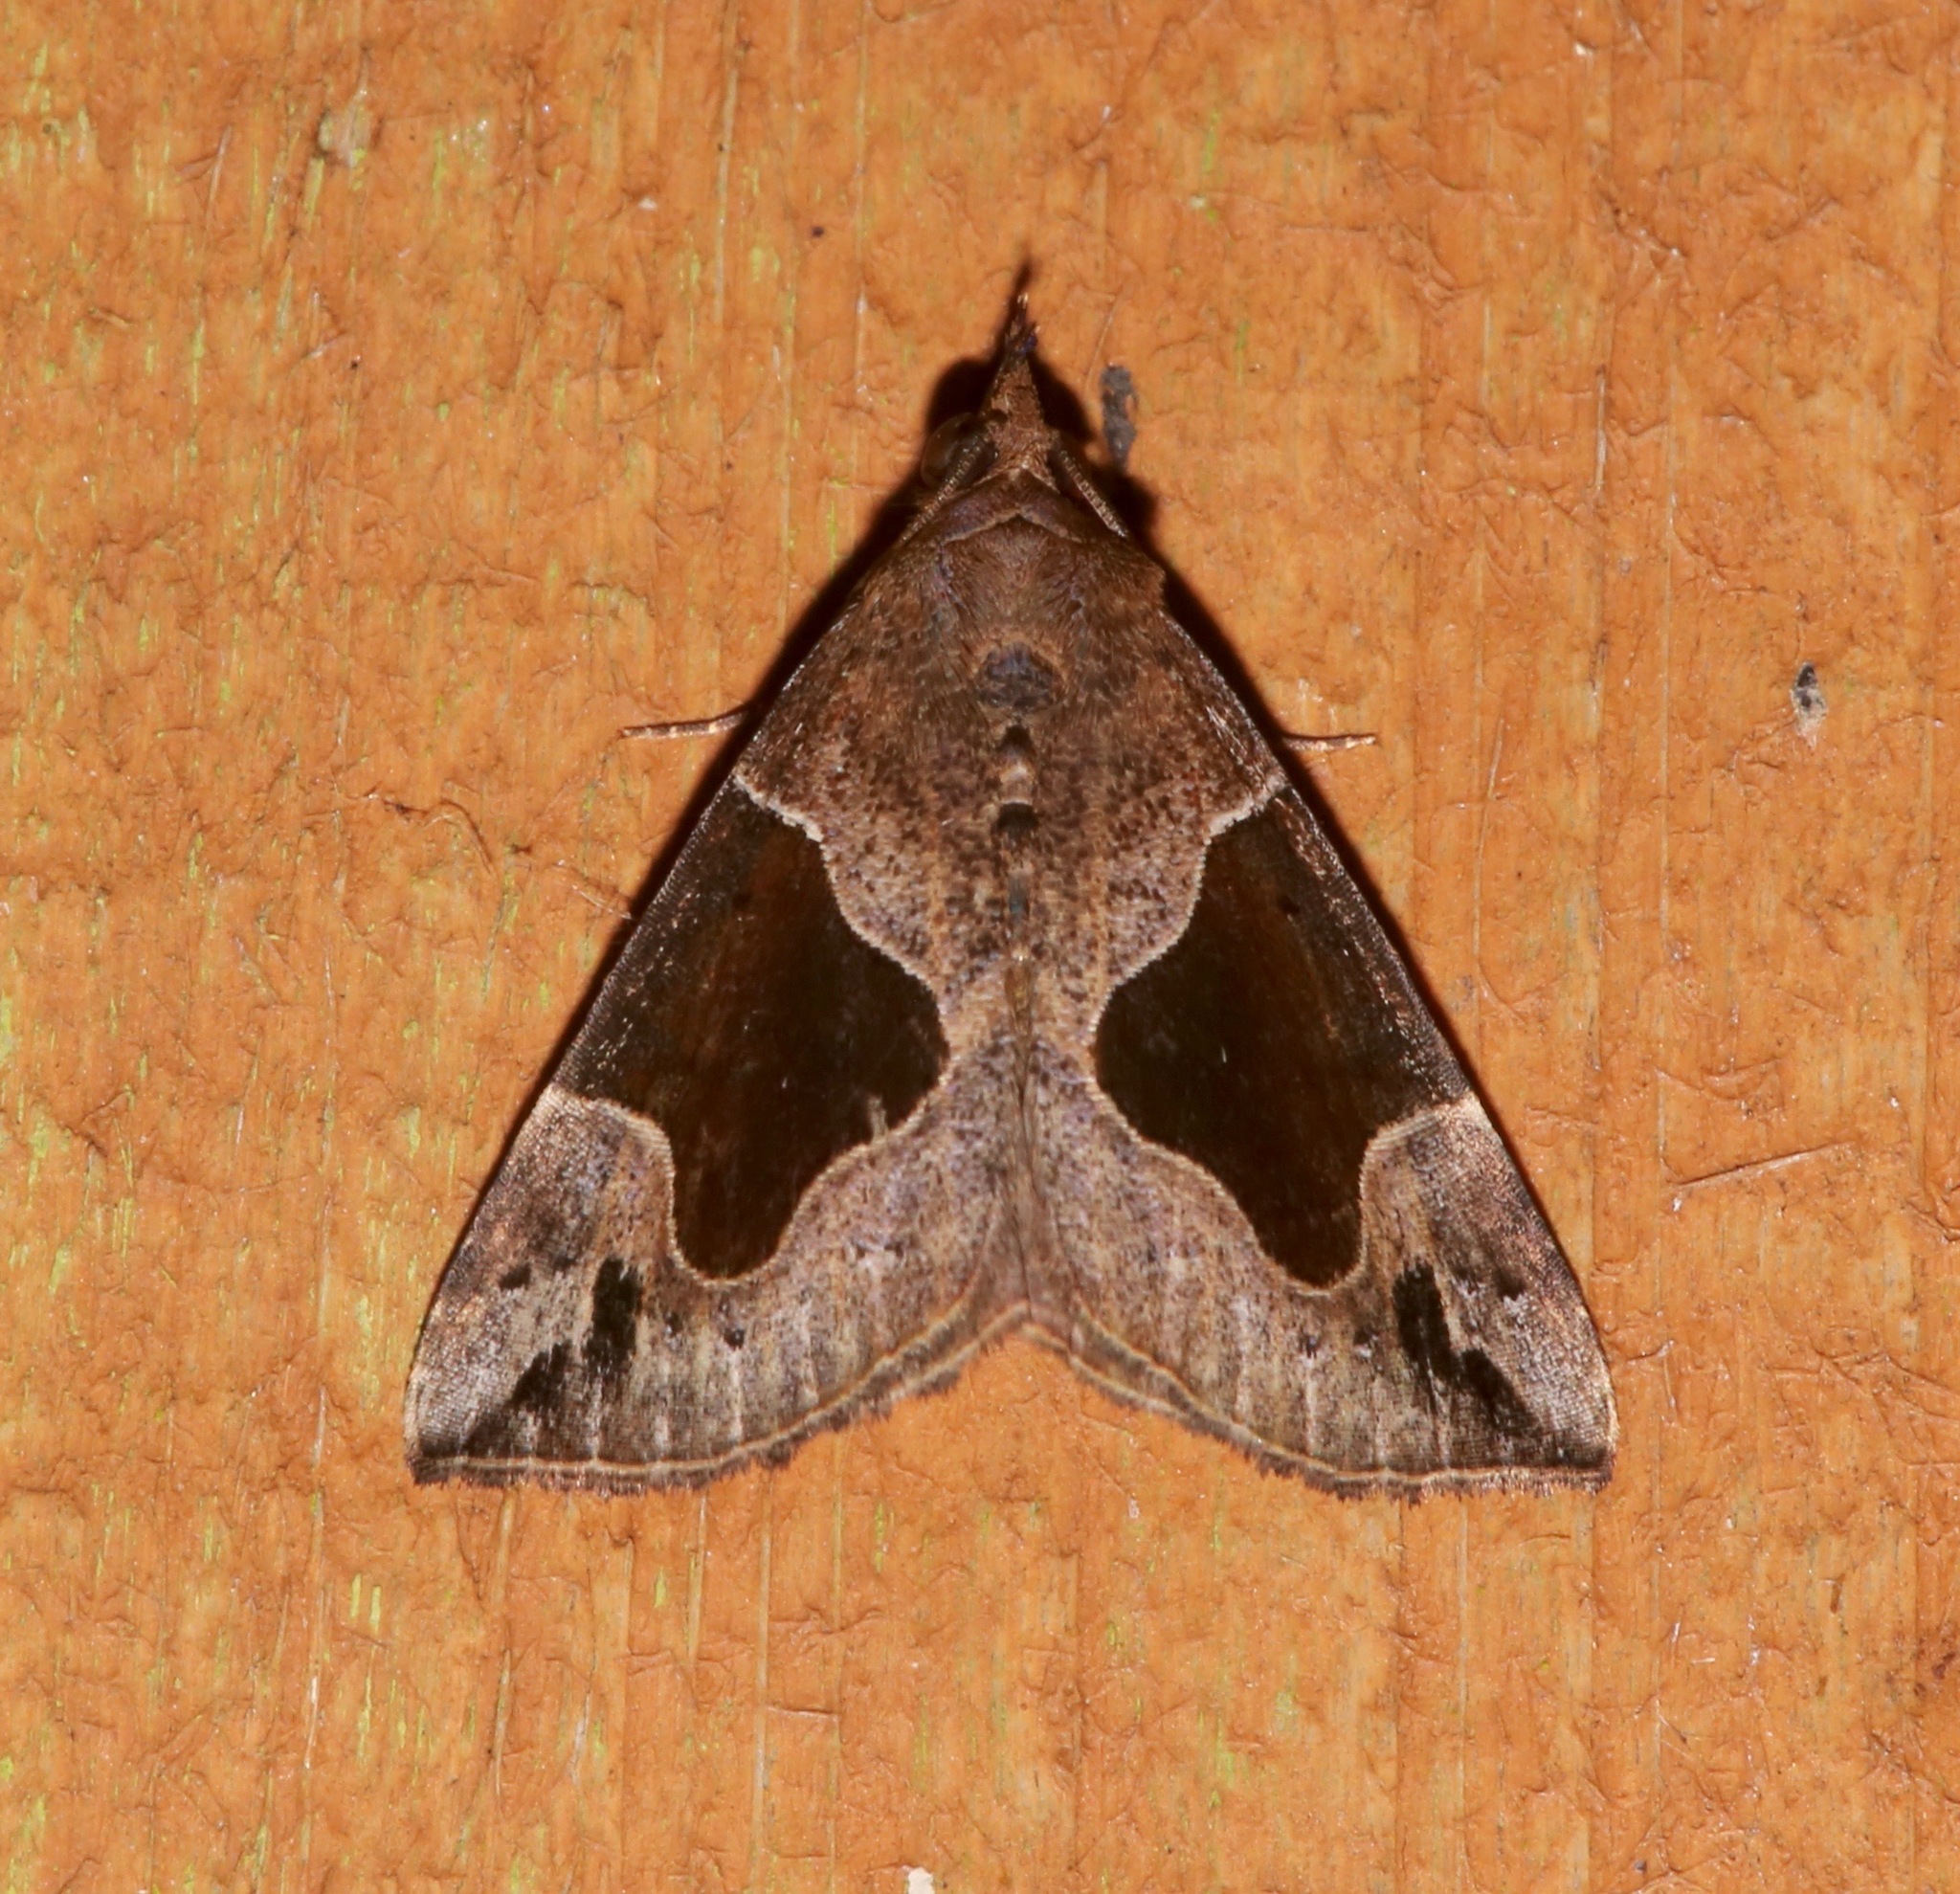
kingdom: Animalia
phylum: Arthropoda
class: Insecta
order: Lepidoptera
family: Erebidae
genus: Hypena
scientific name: Hypena manalis
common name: Flowing-line bomolocha moth
